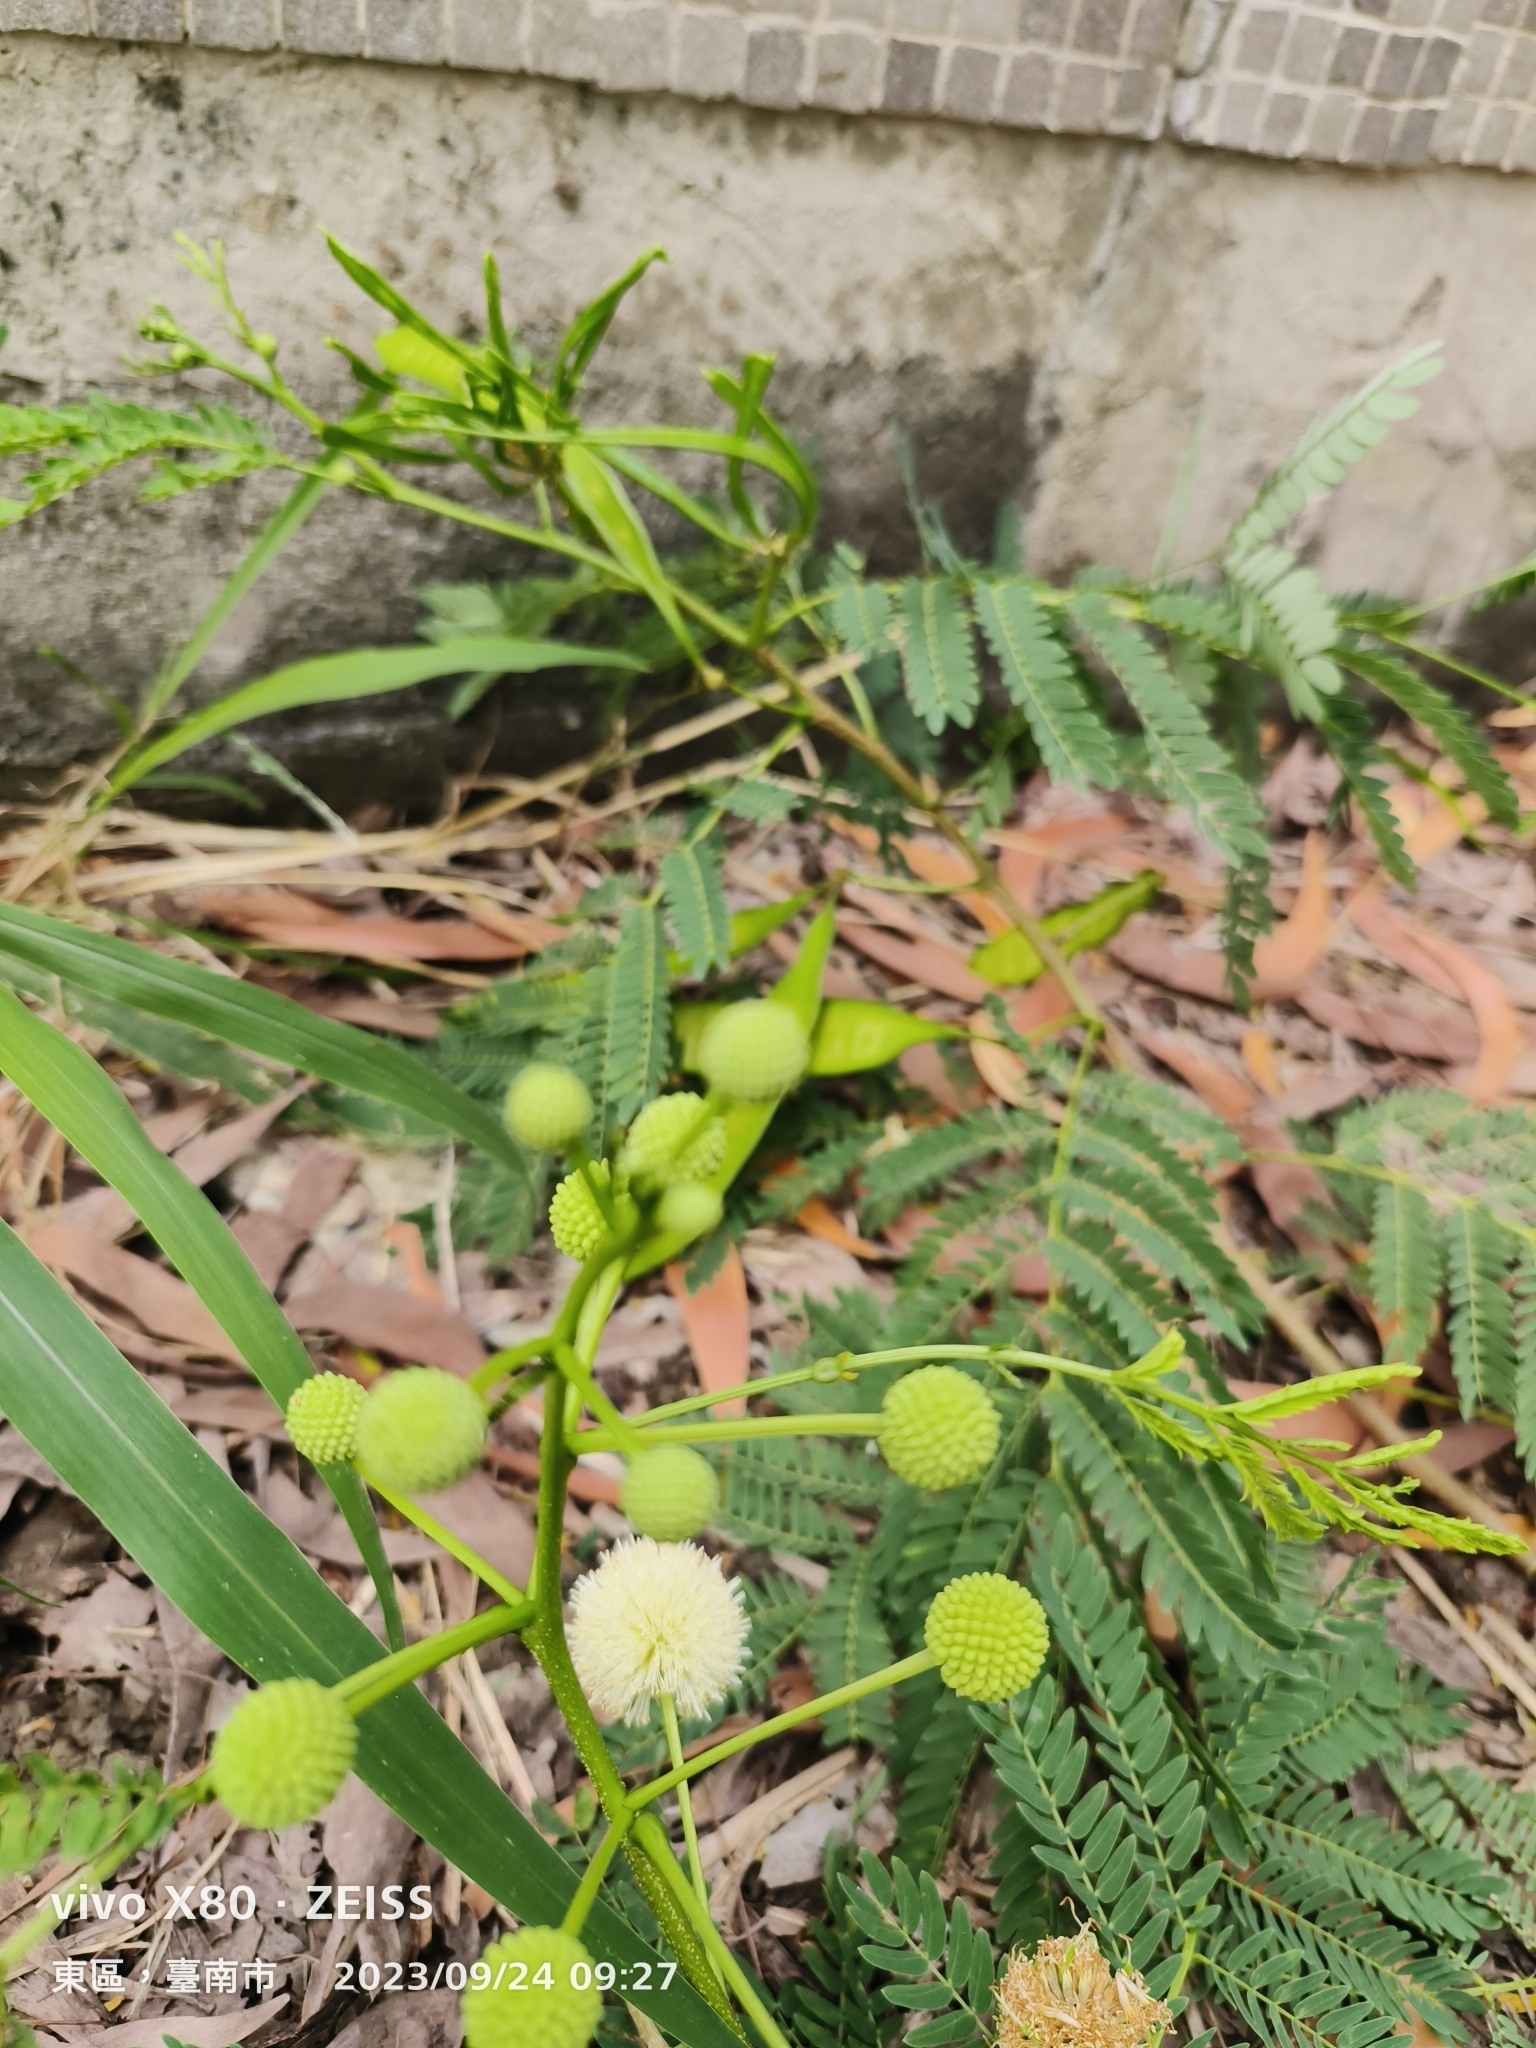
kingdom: Plantae
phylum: Tracheophyta
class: Magnoliopsida
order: Fabales
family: Fabaceae
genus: Leucaena
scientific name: Leucaena leucocephala
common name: White leadtree
